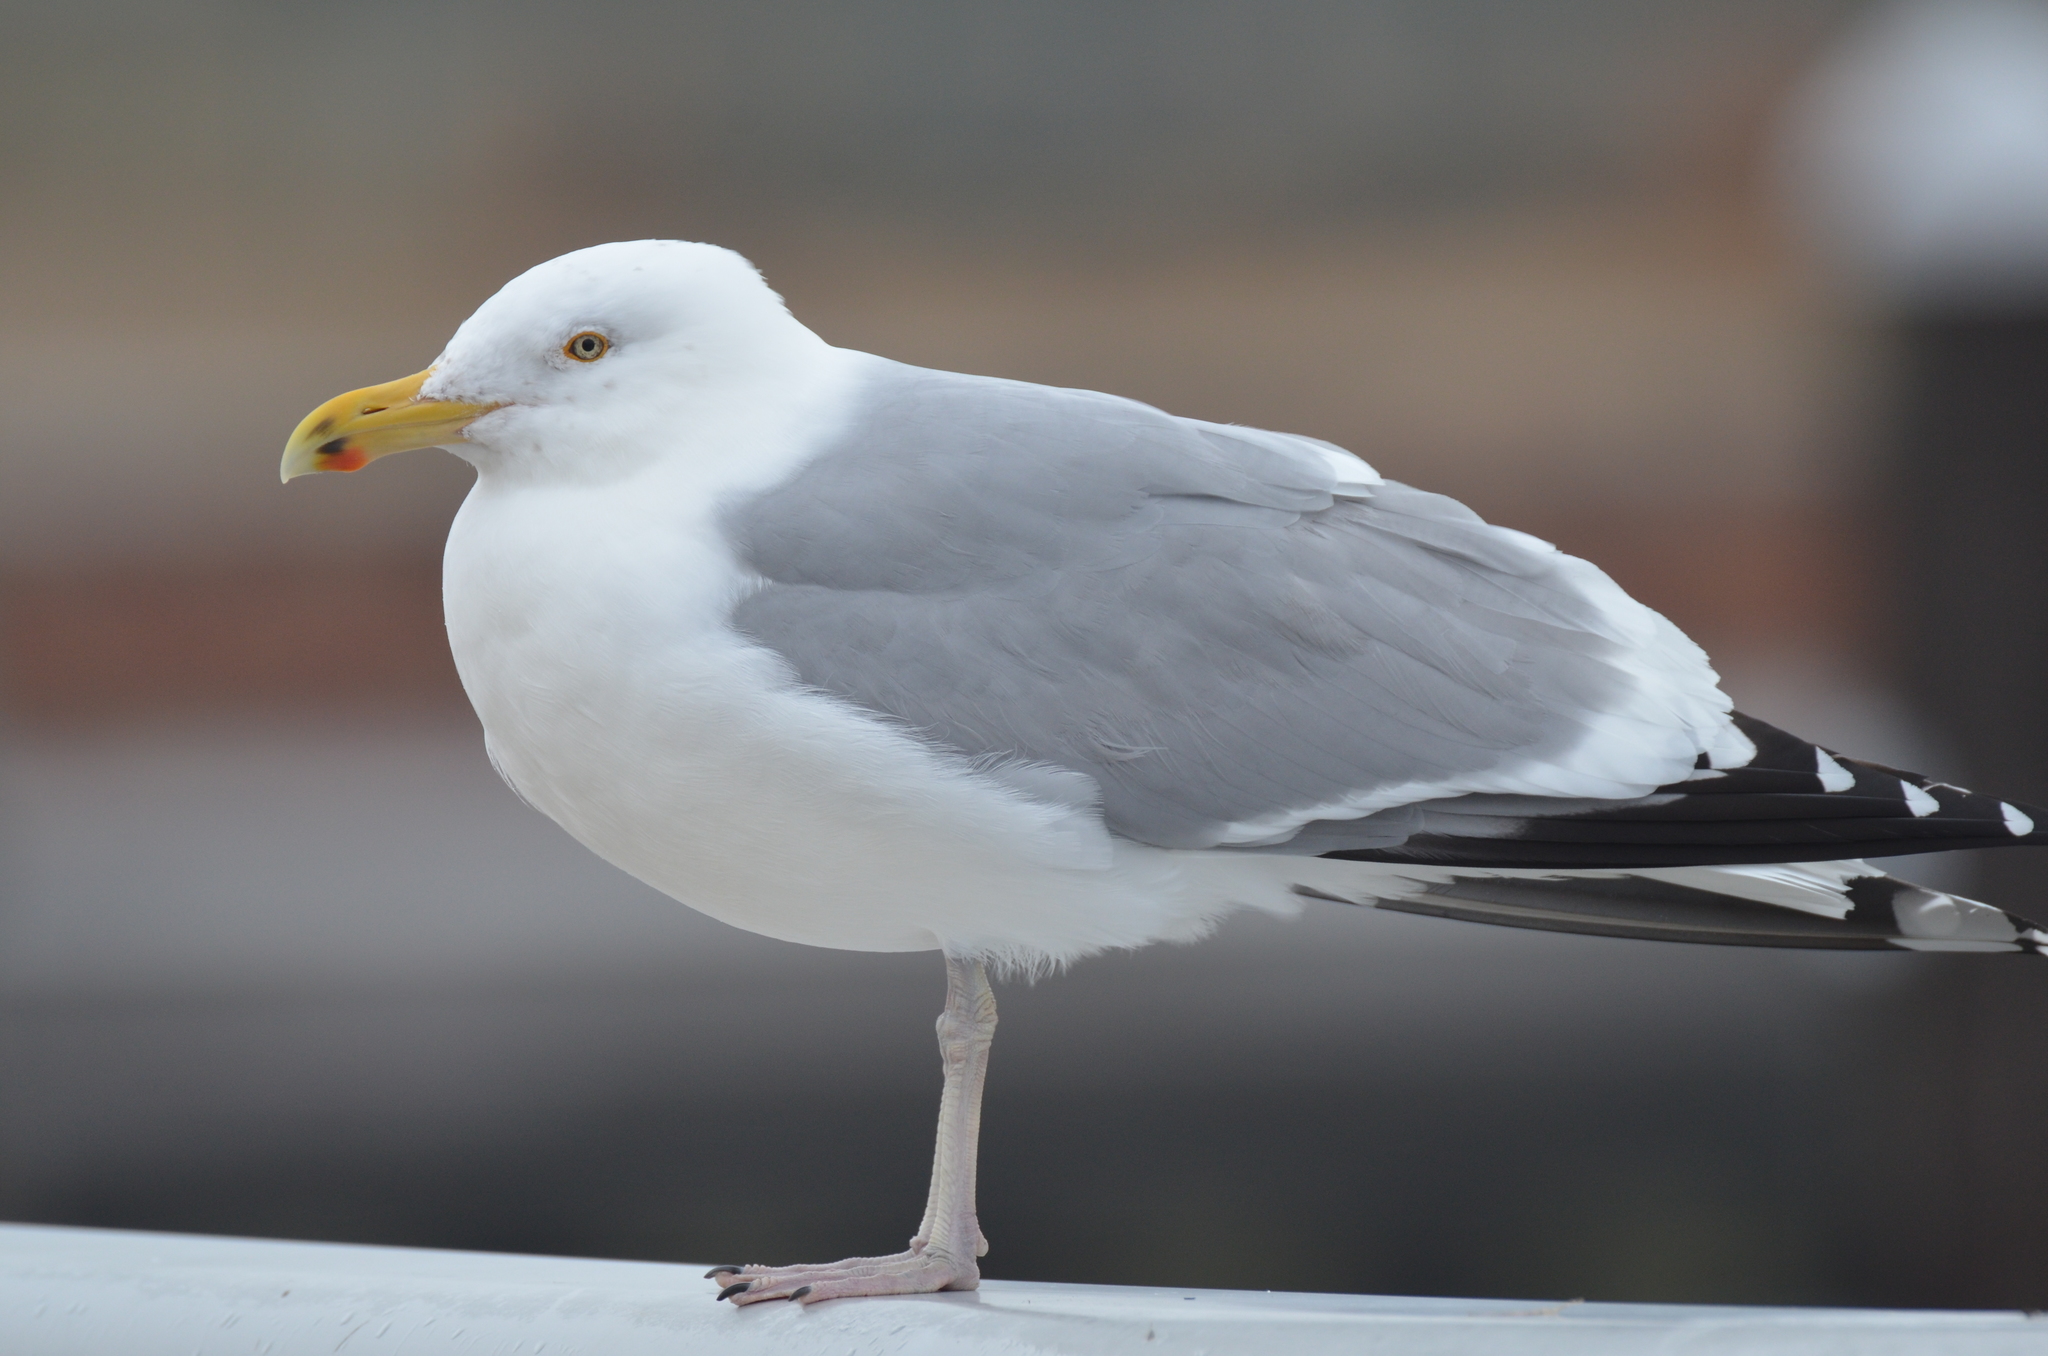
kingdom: Animalia
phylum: Chordata
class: Aves
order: Charadriiformes
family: Laridae
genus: Larus
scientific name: Larus argentatus
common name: Herring gull
